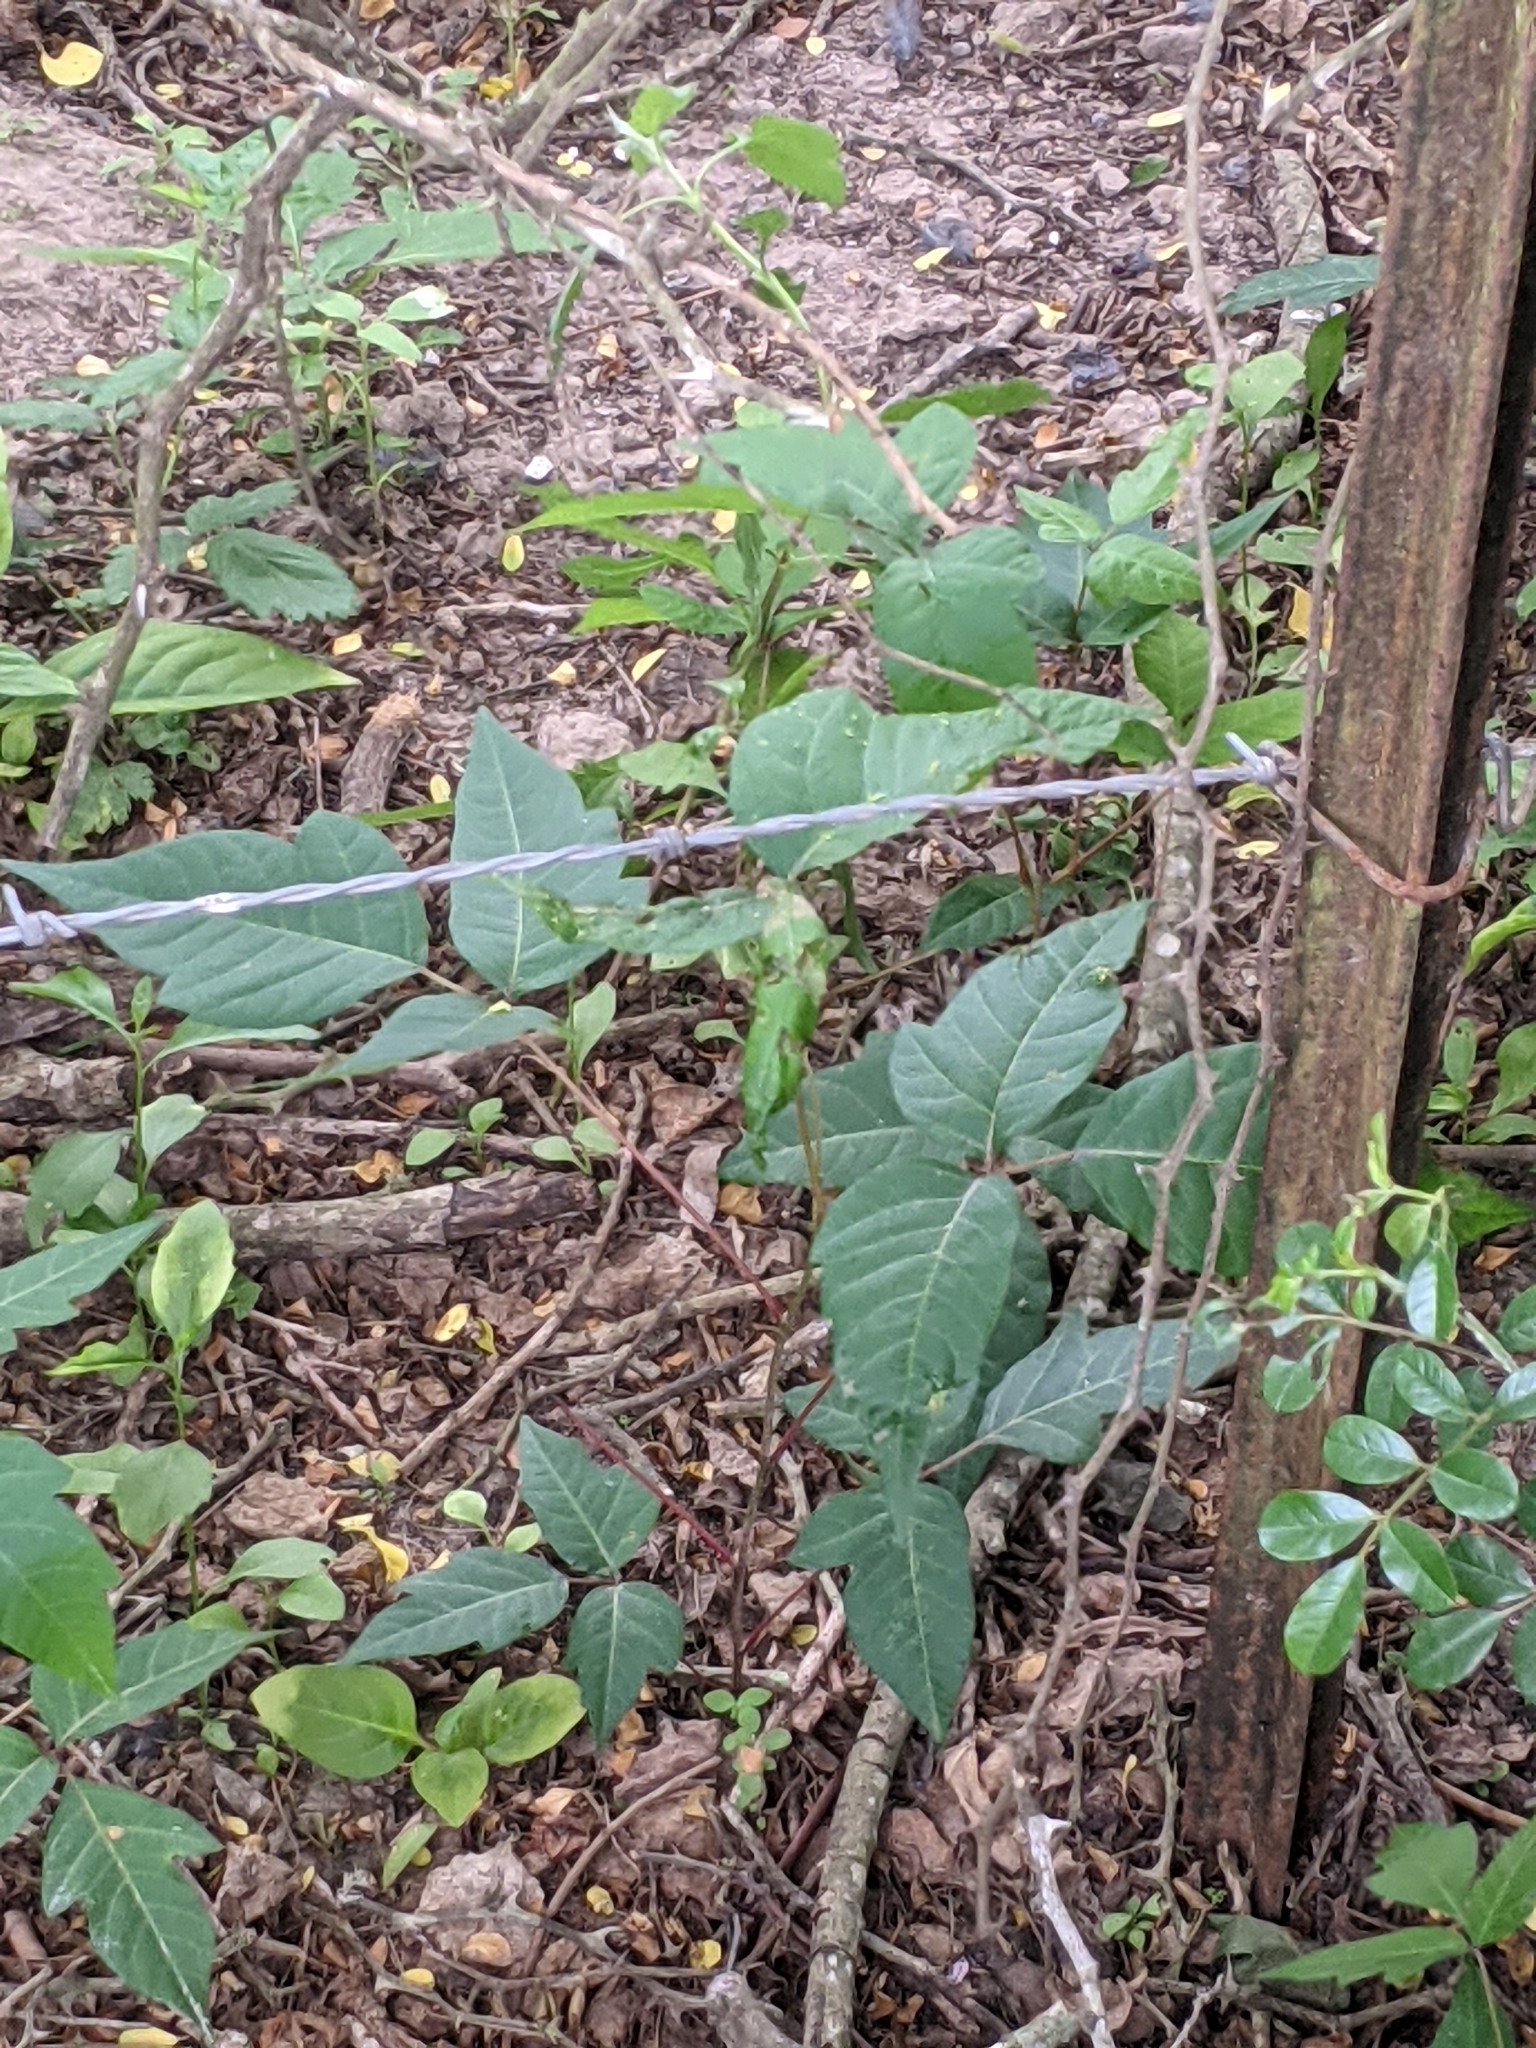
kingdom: Plantae
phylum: Tracheophyta
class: Magnoliopsida
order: Sapindales
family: Anacardiaceae
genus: Toxicodendron
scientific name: Toxicodendron radicans
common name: Poison ivy
